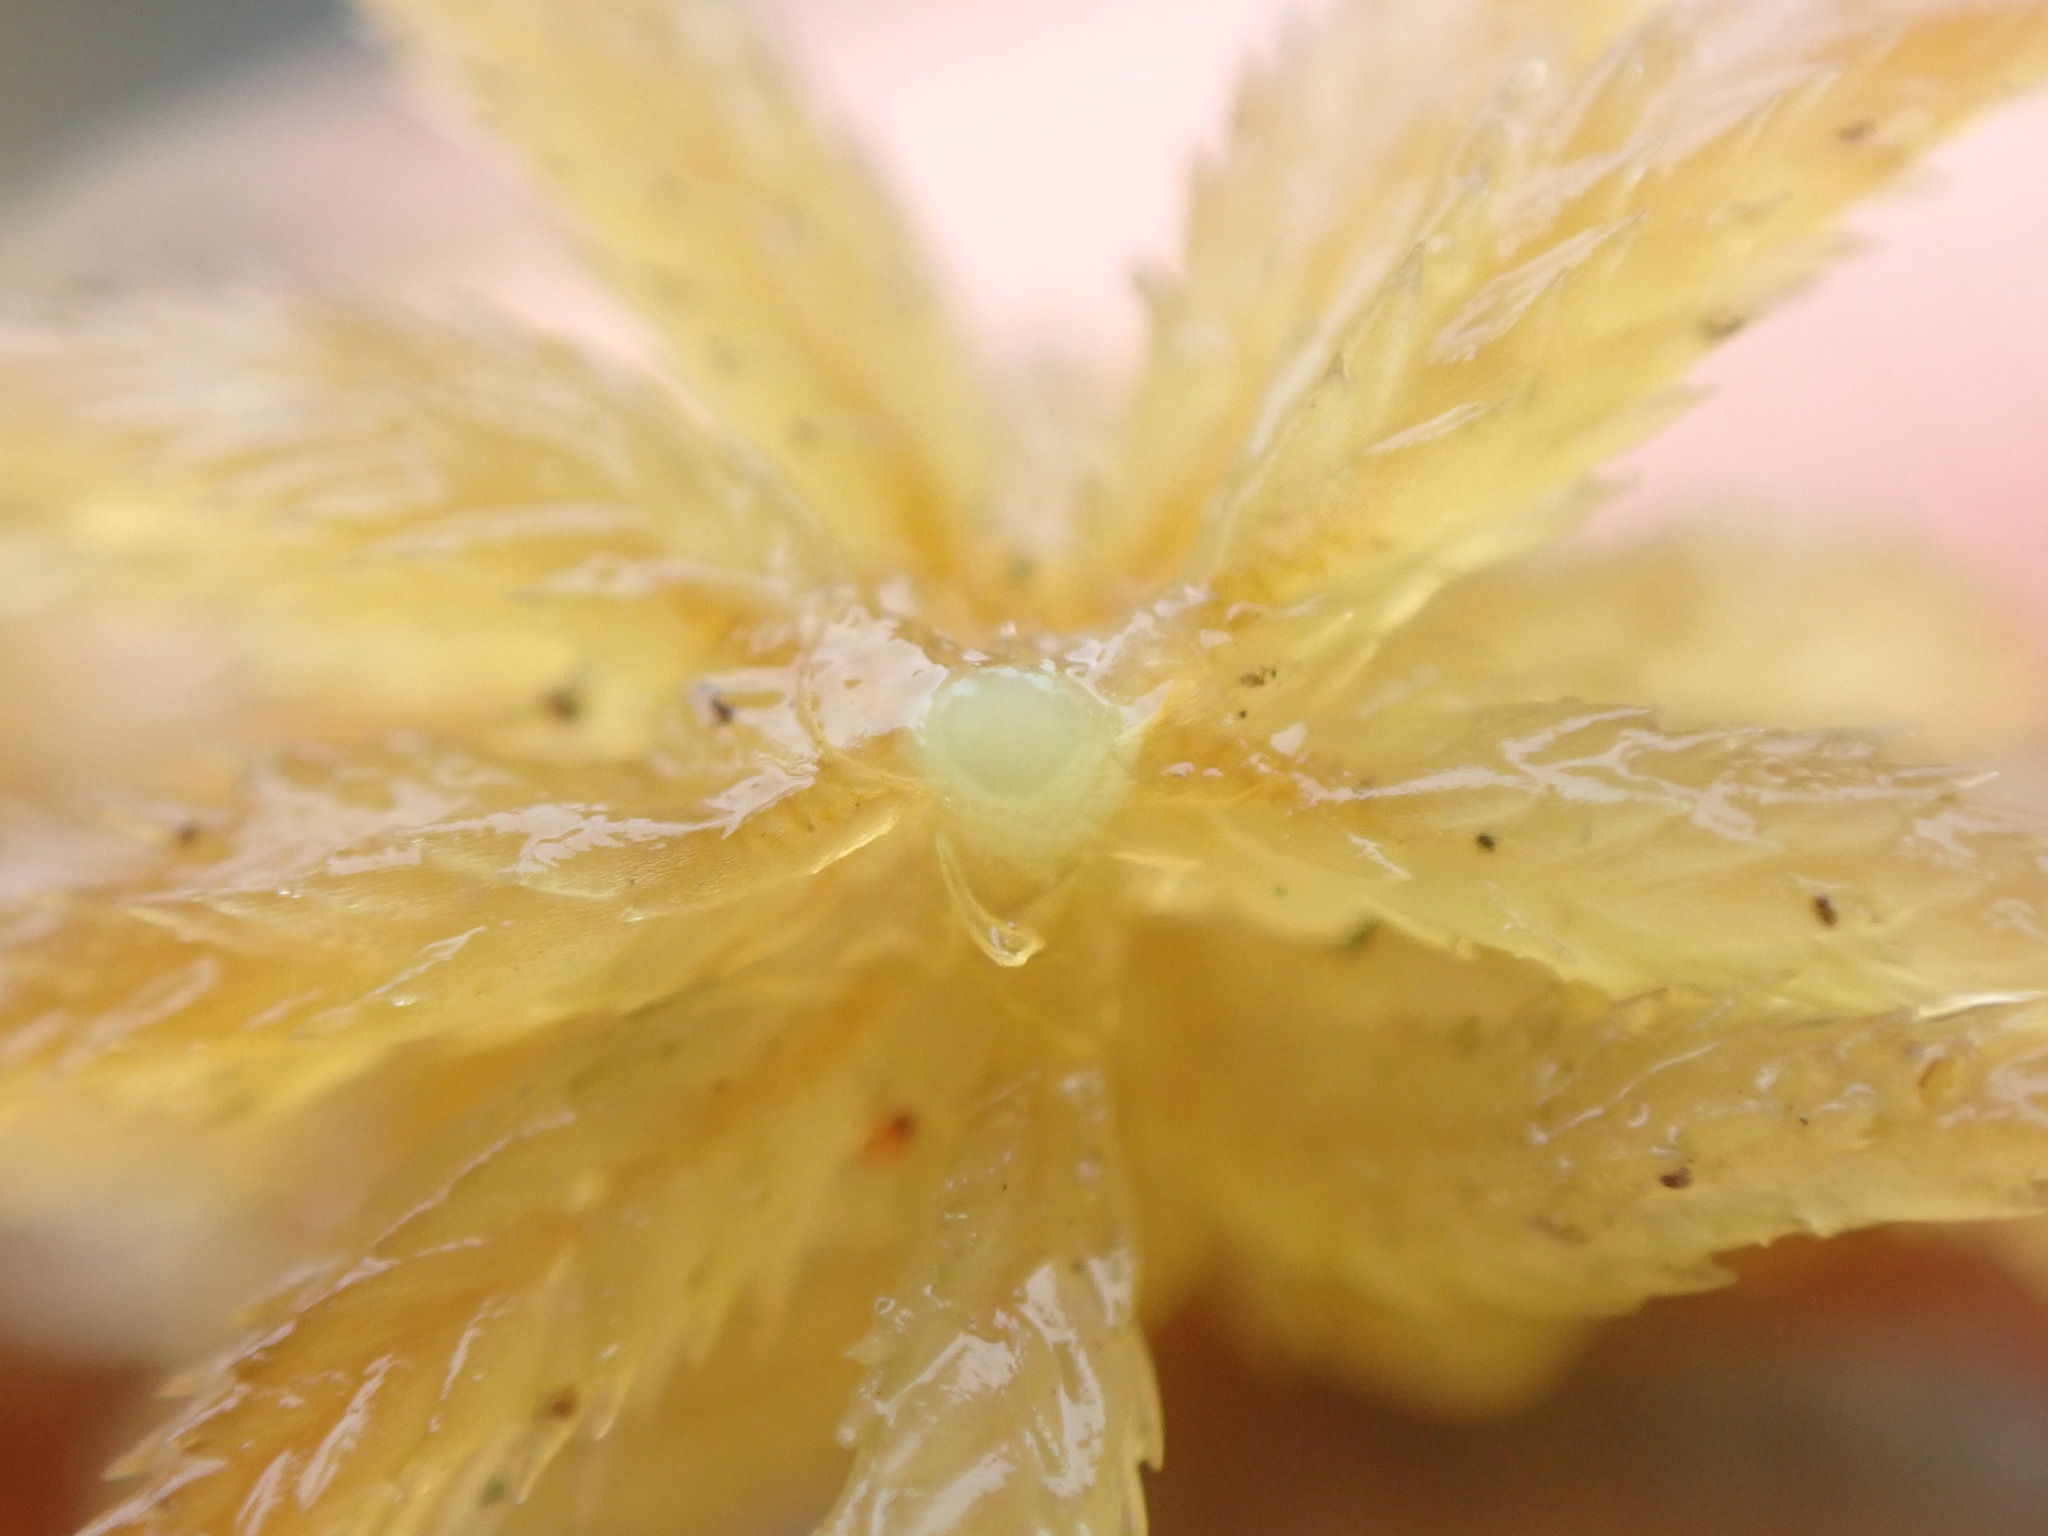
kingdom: Plantae
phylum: Bryophyta
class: Sphagnopsida
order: Sphagnales
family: Sphagnaceae
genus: Sphagnum
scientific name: Sphagnum mendocinum
